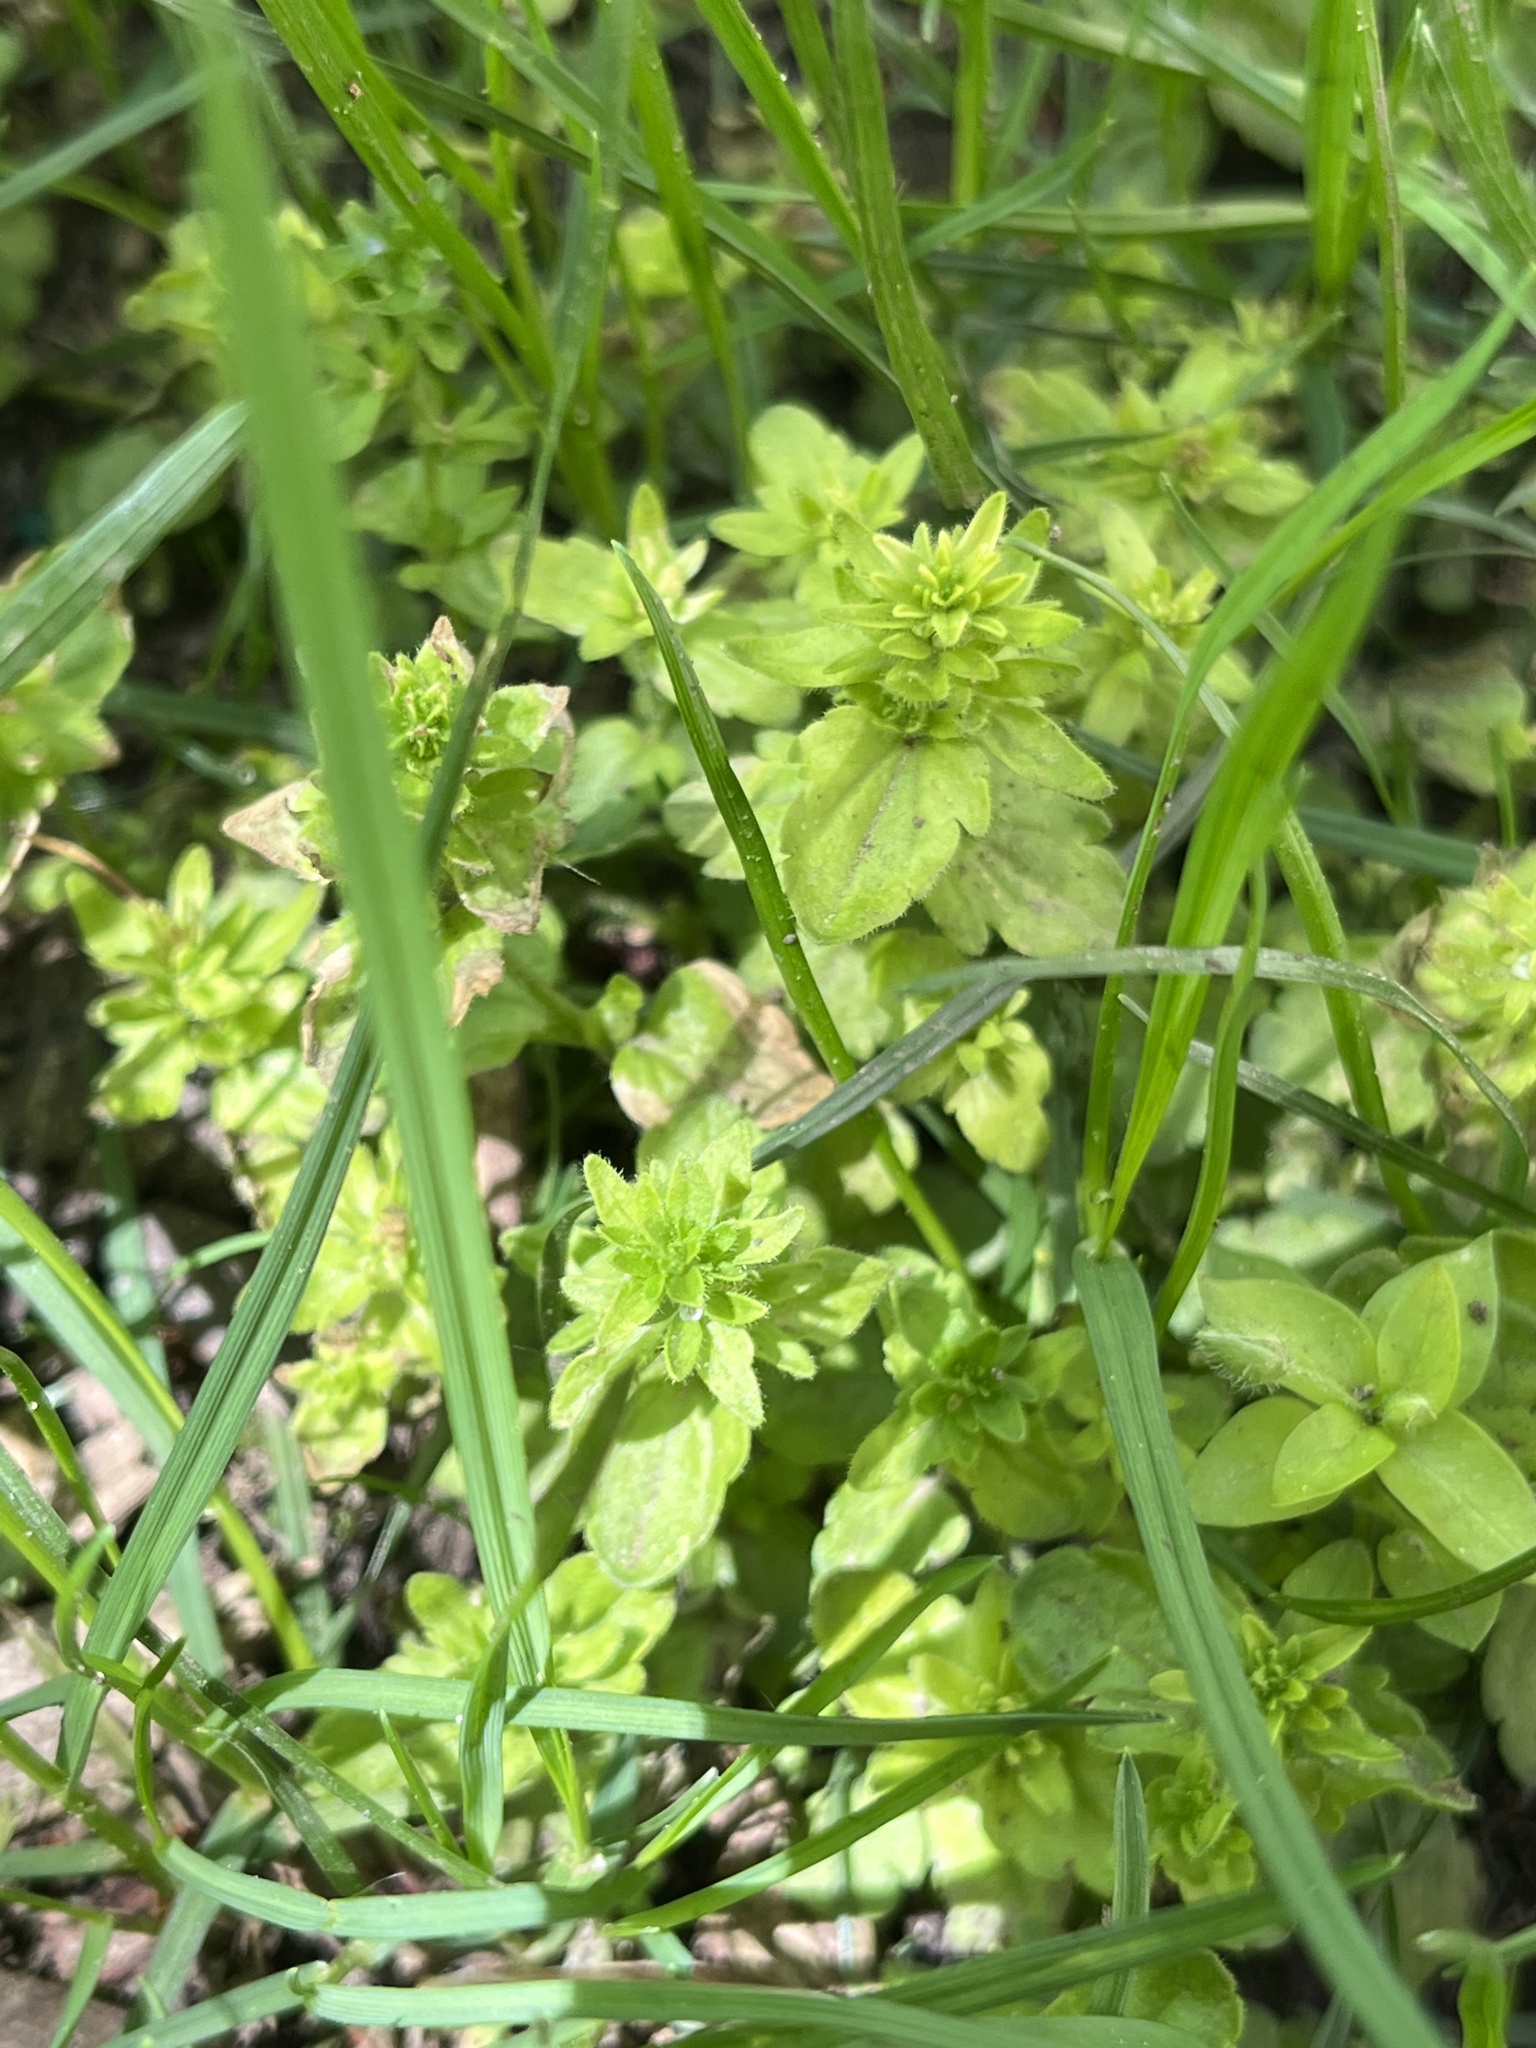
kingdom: Plantae
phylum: Tracheophyta
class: Magnoliopsida
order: Lamiales
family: Plantaginaceae
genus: Veronica
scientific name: Veronica arvensis
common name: Corn speedwell
